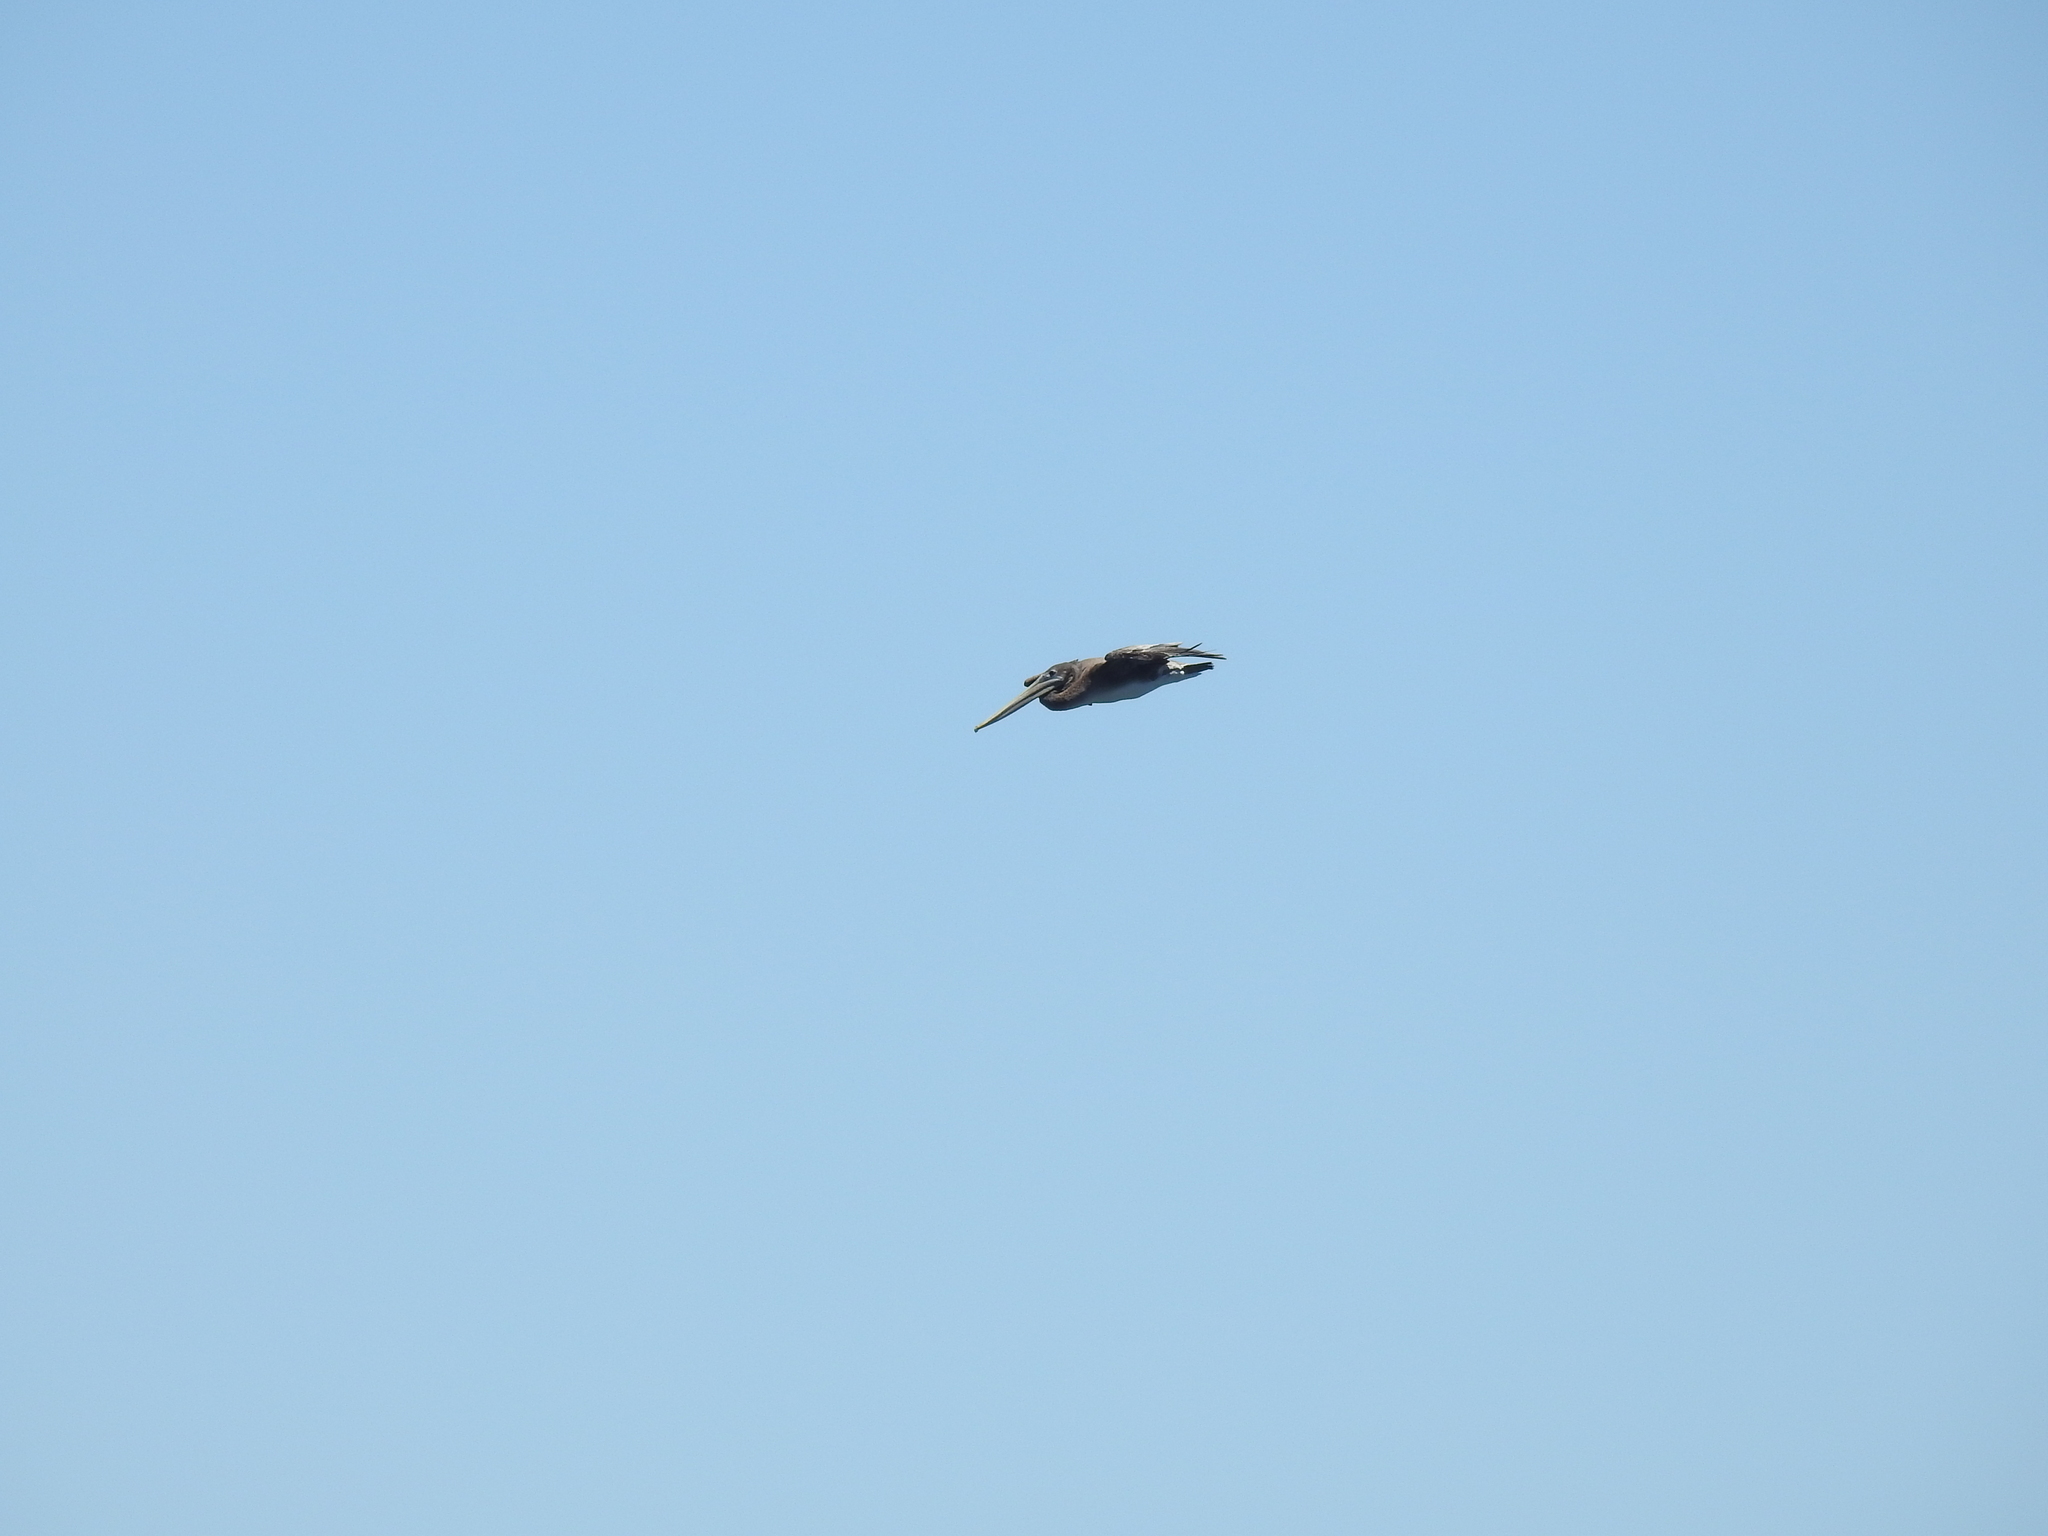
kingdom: Animalia
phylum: Chordata
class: Aves
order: Pelecaniformes
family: Pelecanidae
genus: Pelecanus
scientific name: Pelecanus occidentalis
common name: Brown pelican
